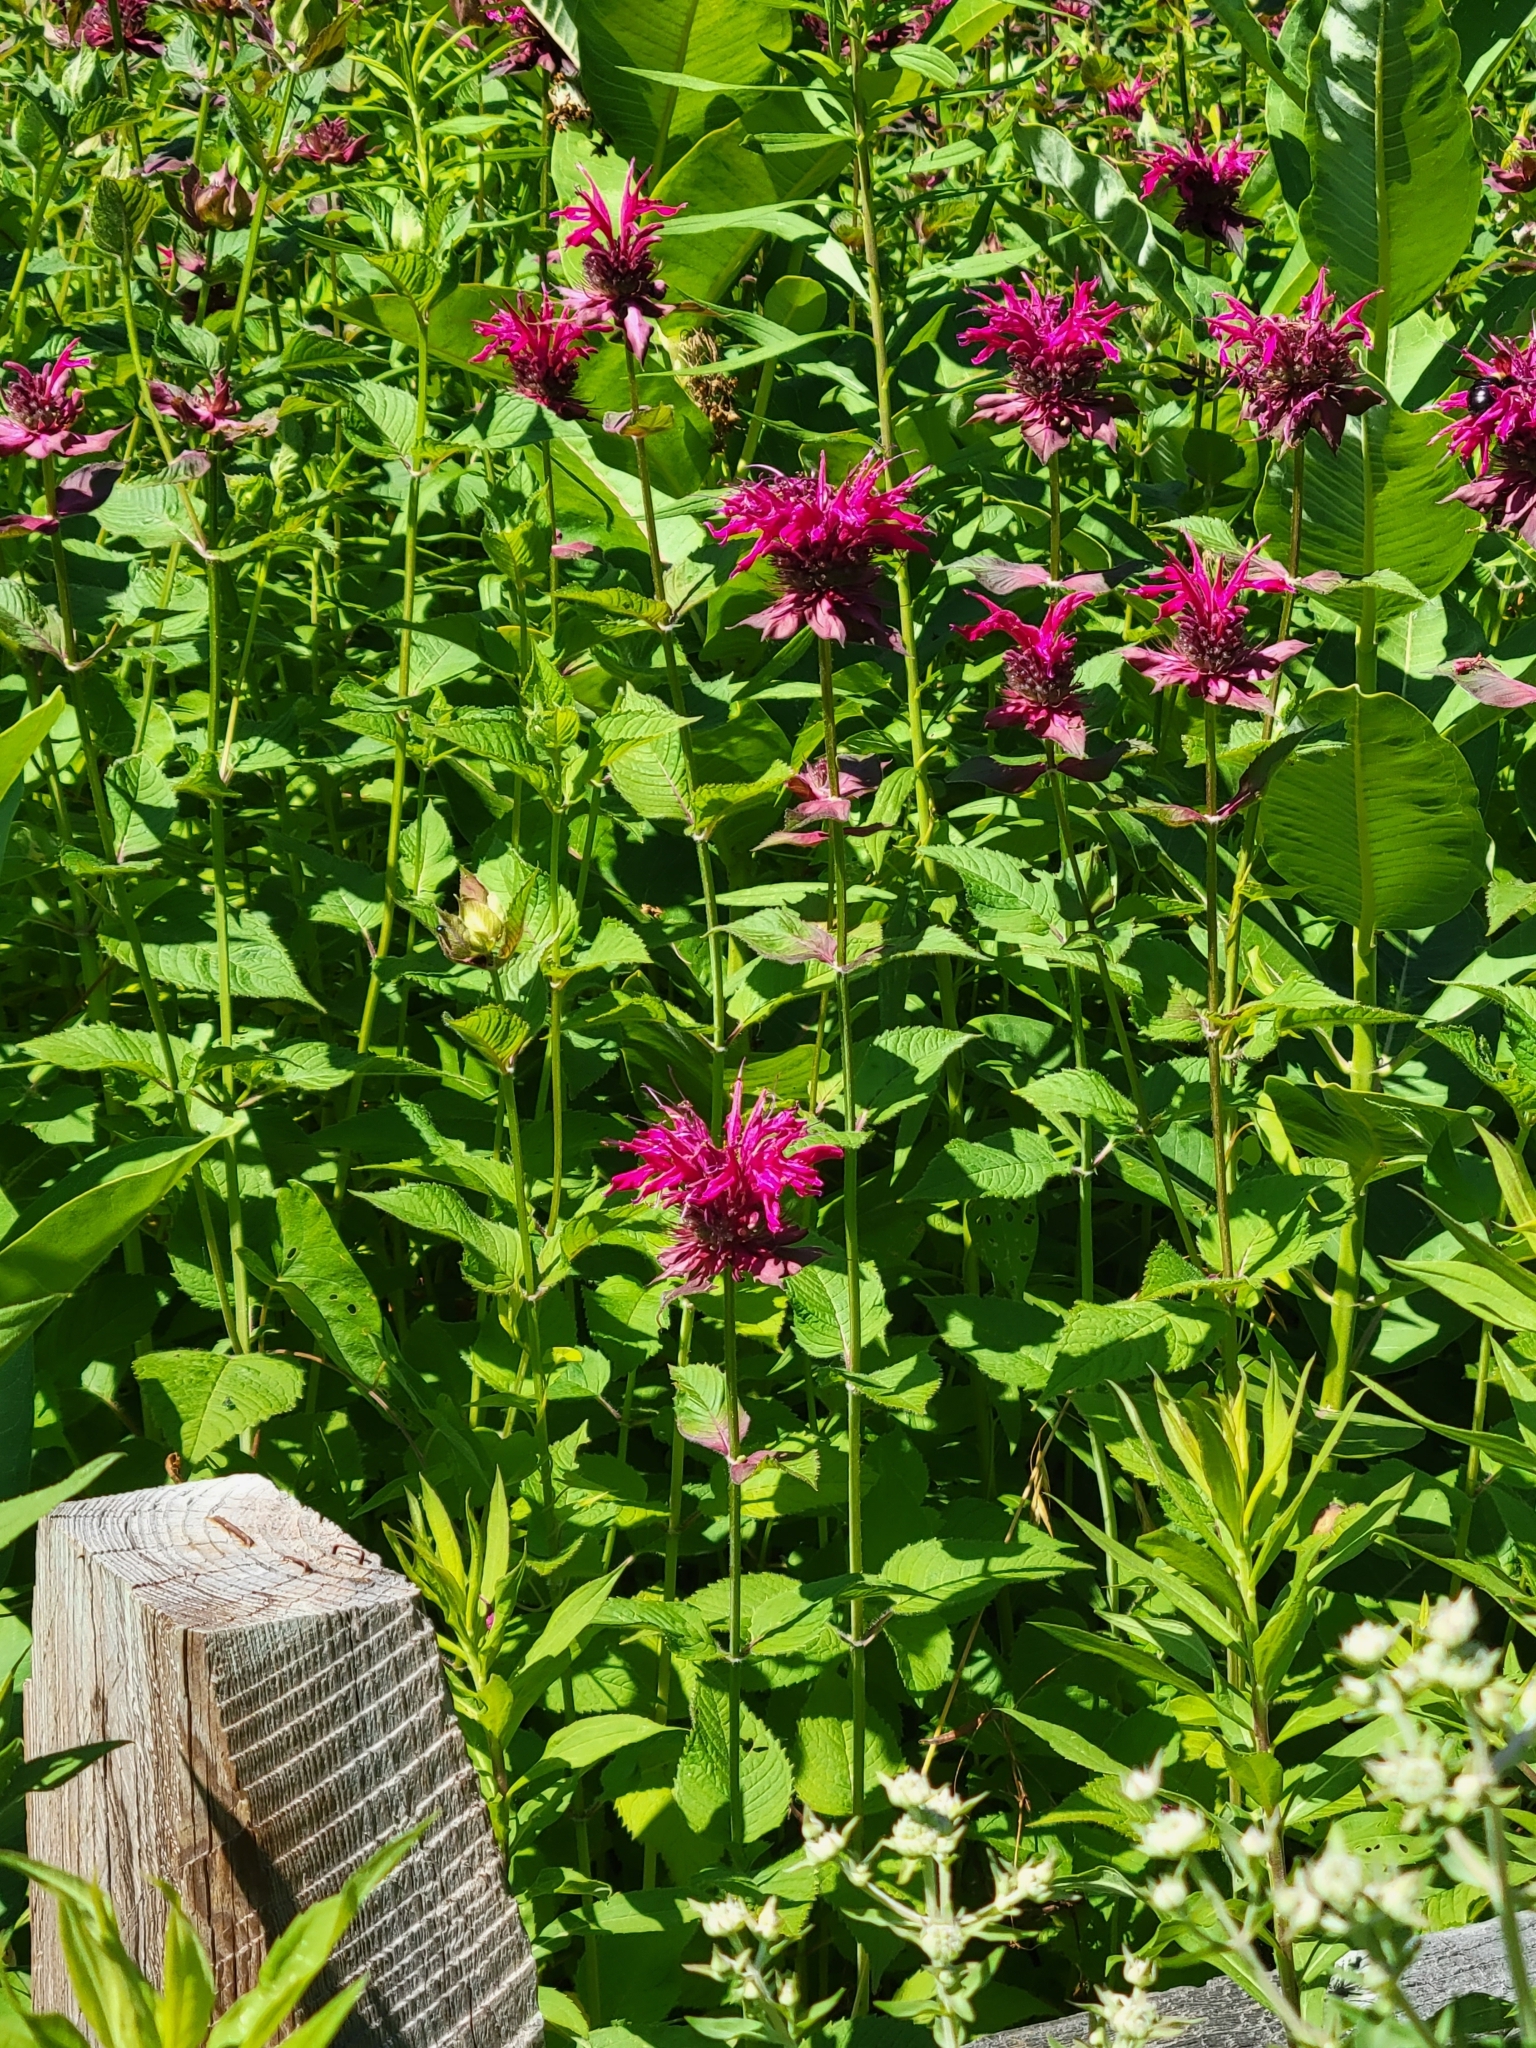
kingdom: Plantae
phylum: Tracheophyta
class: Magnoliopsida
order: Lamiales
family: Lamiaceae
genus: Monarda
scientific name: Monarda didyma
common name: Beebalm
